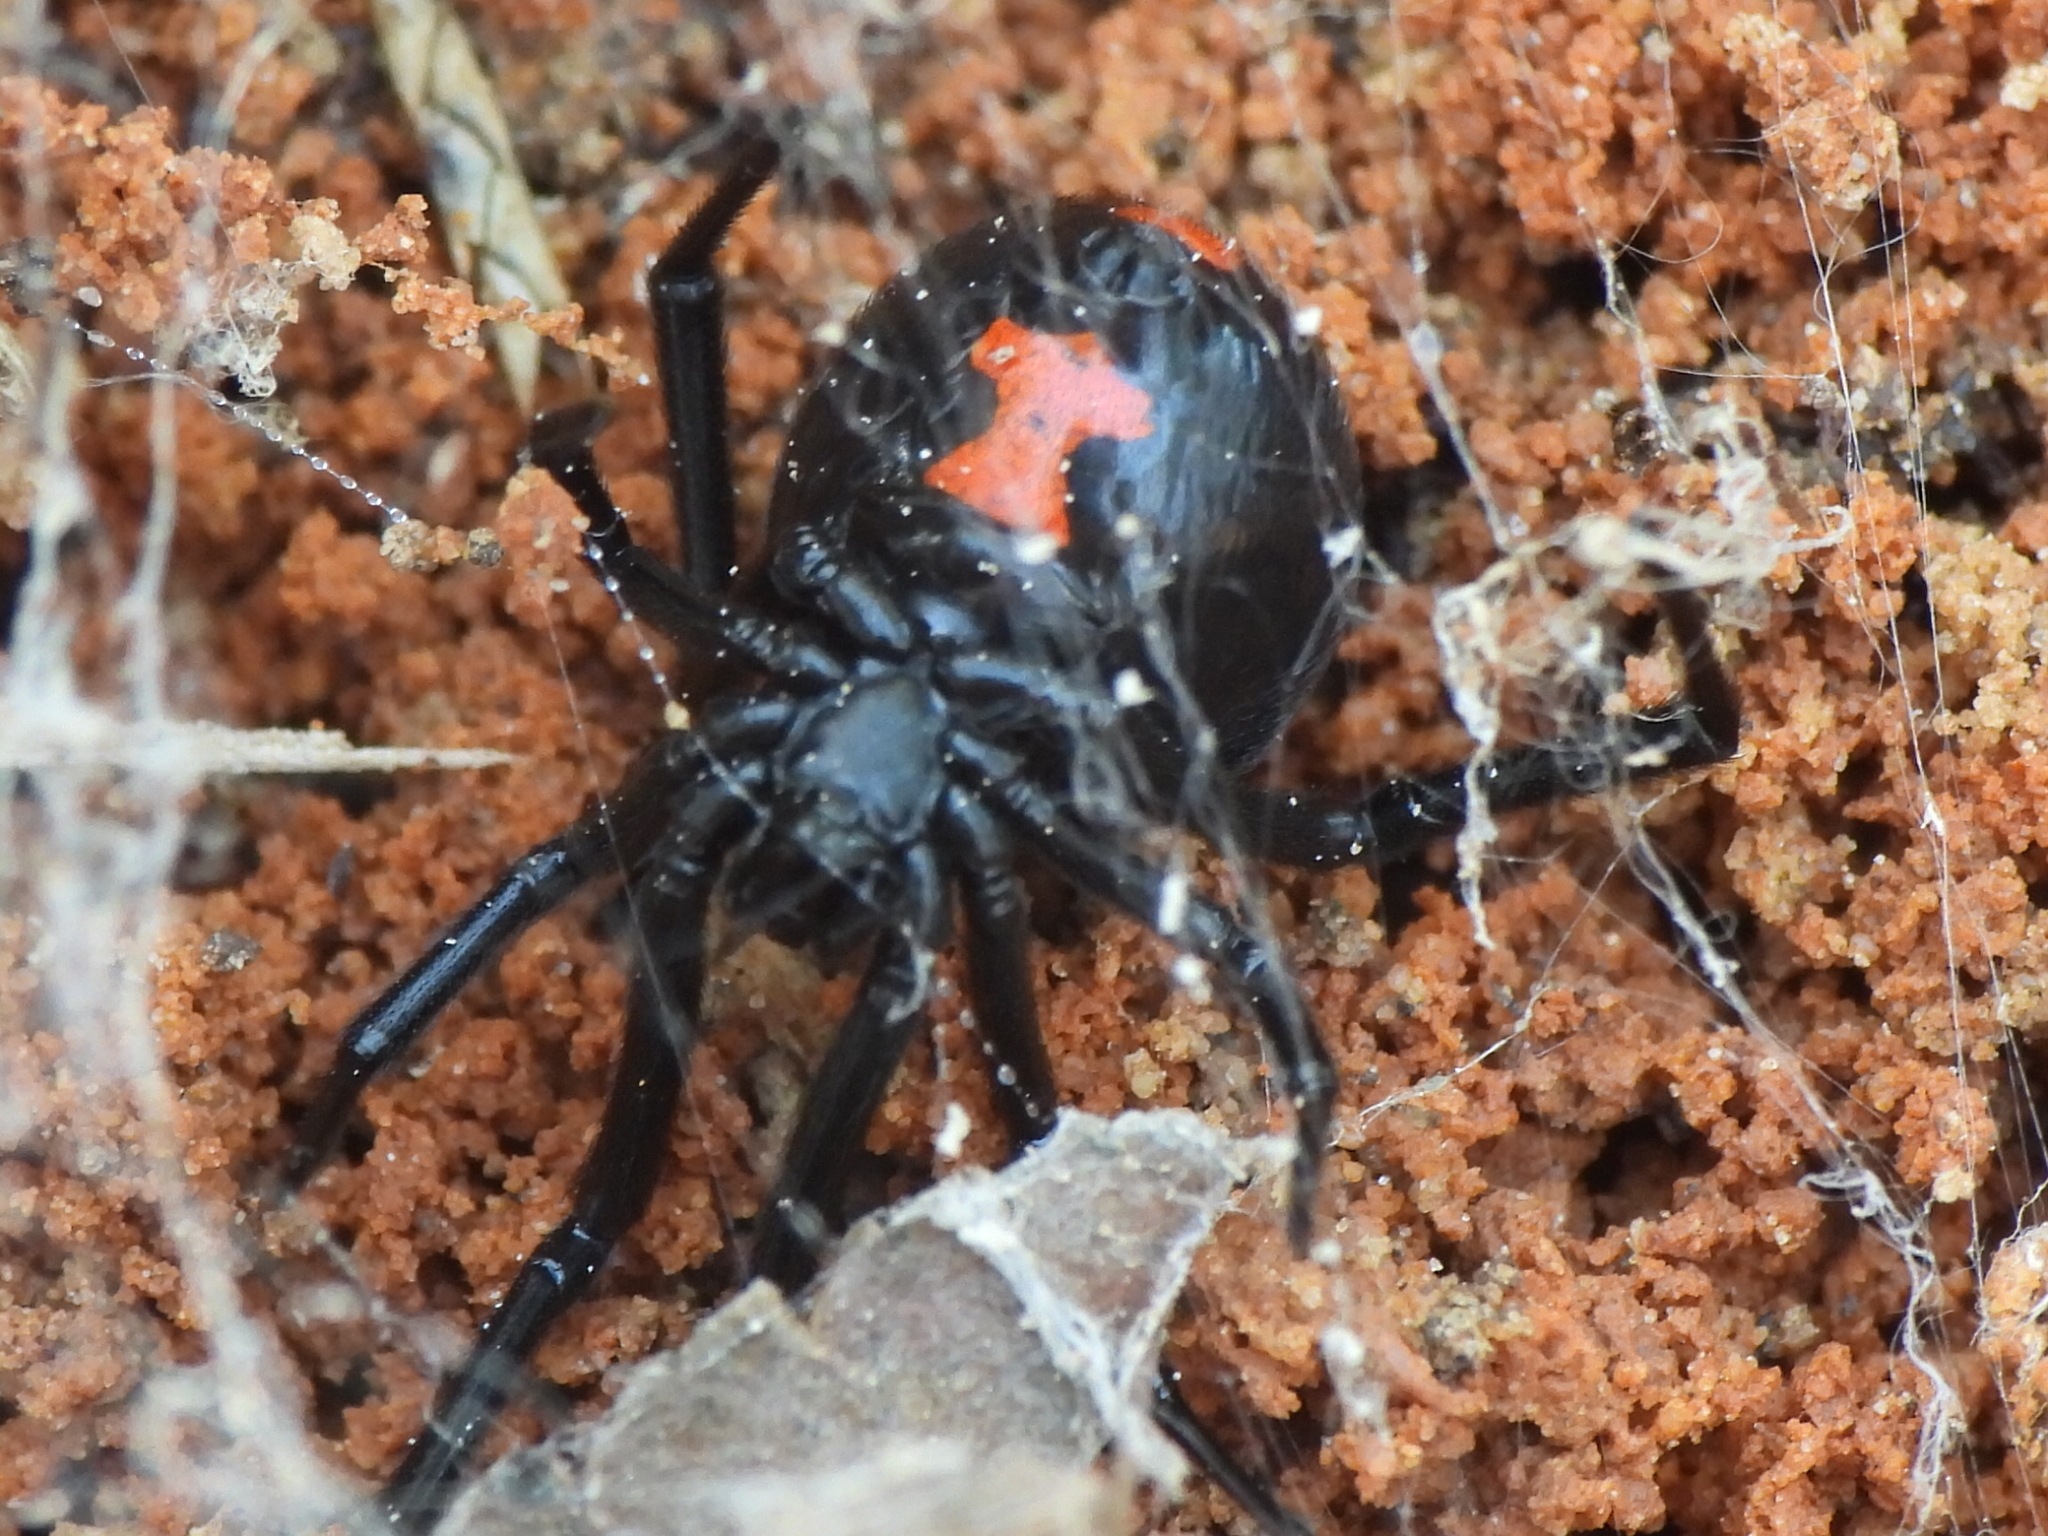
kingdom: Animalia
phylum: Arthropoda
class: Arachnida
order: Araneae
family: Theridiidae
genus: Latrodectus
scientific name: Latrodectus mactans
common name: Cobweb spiders
